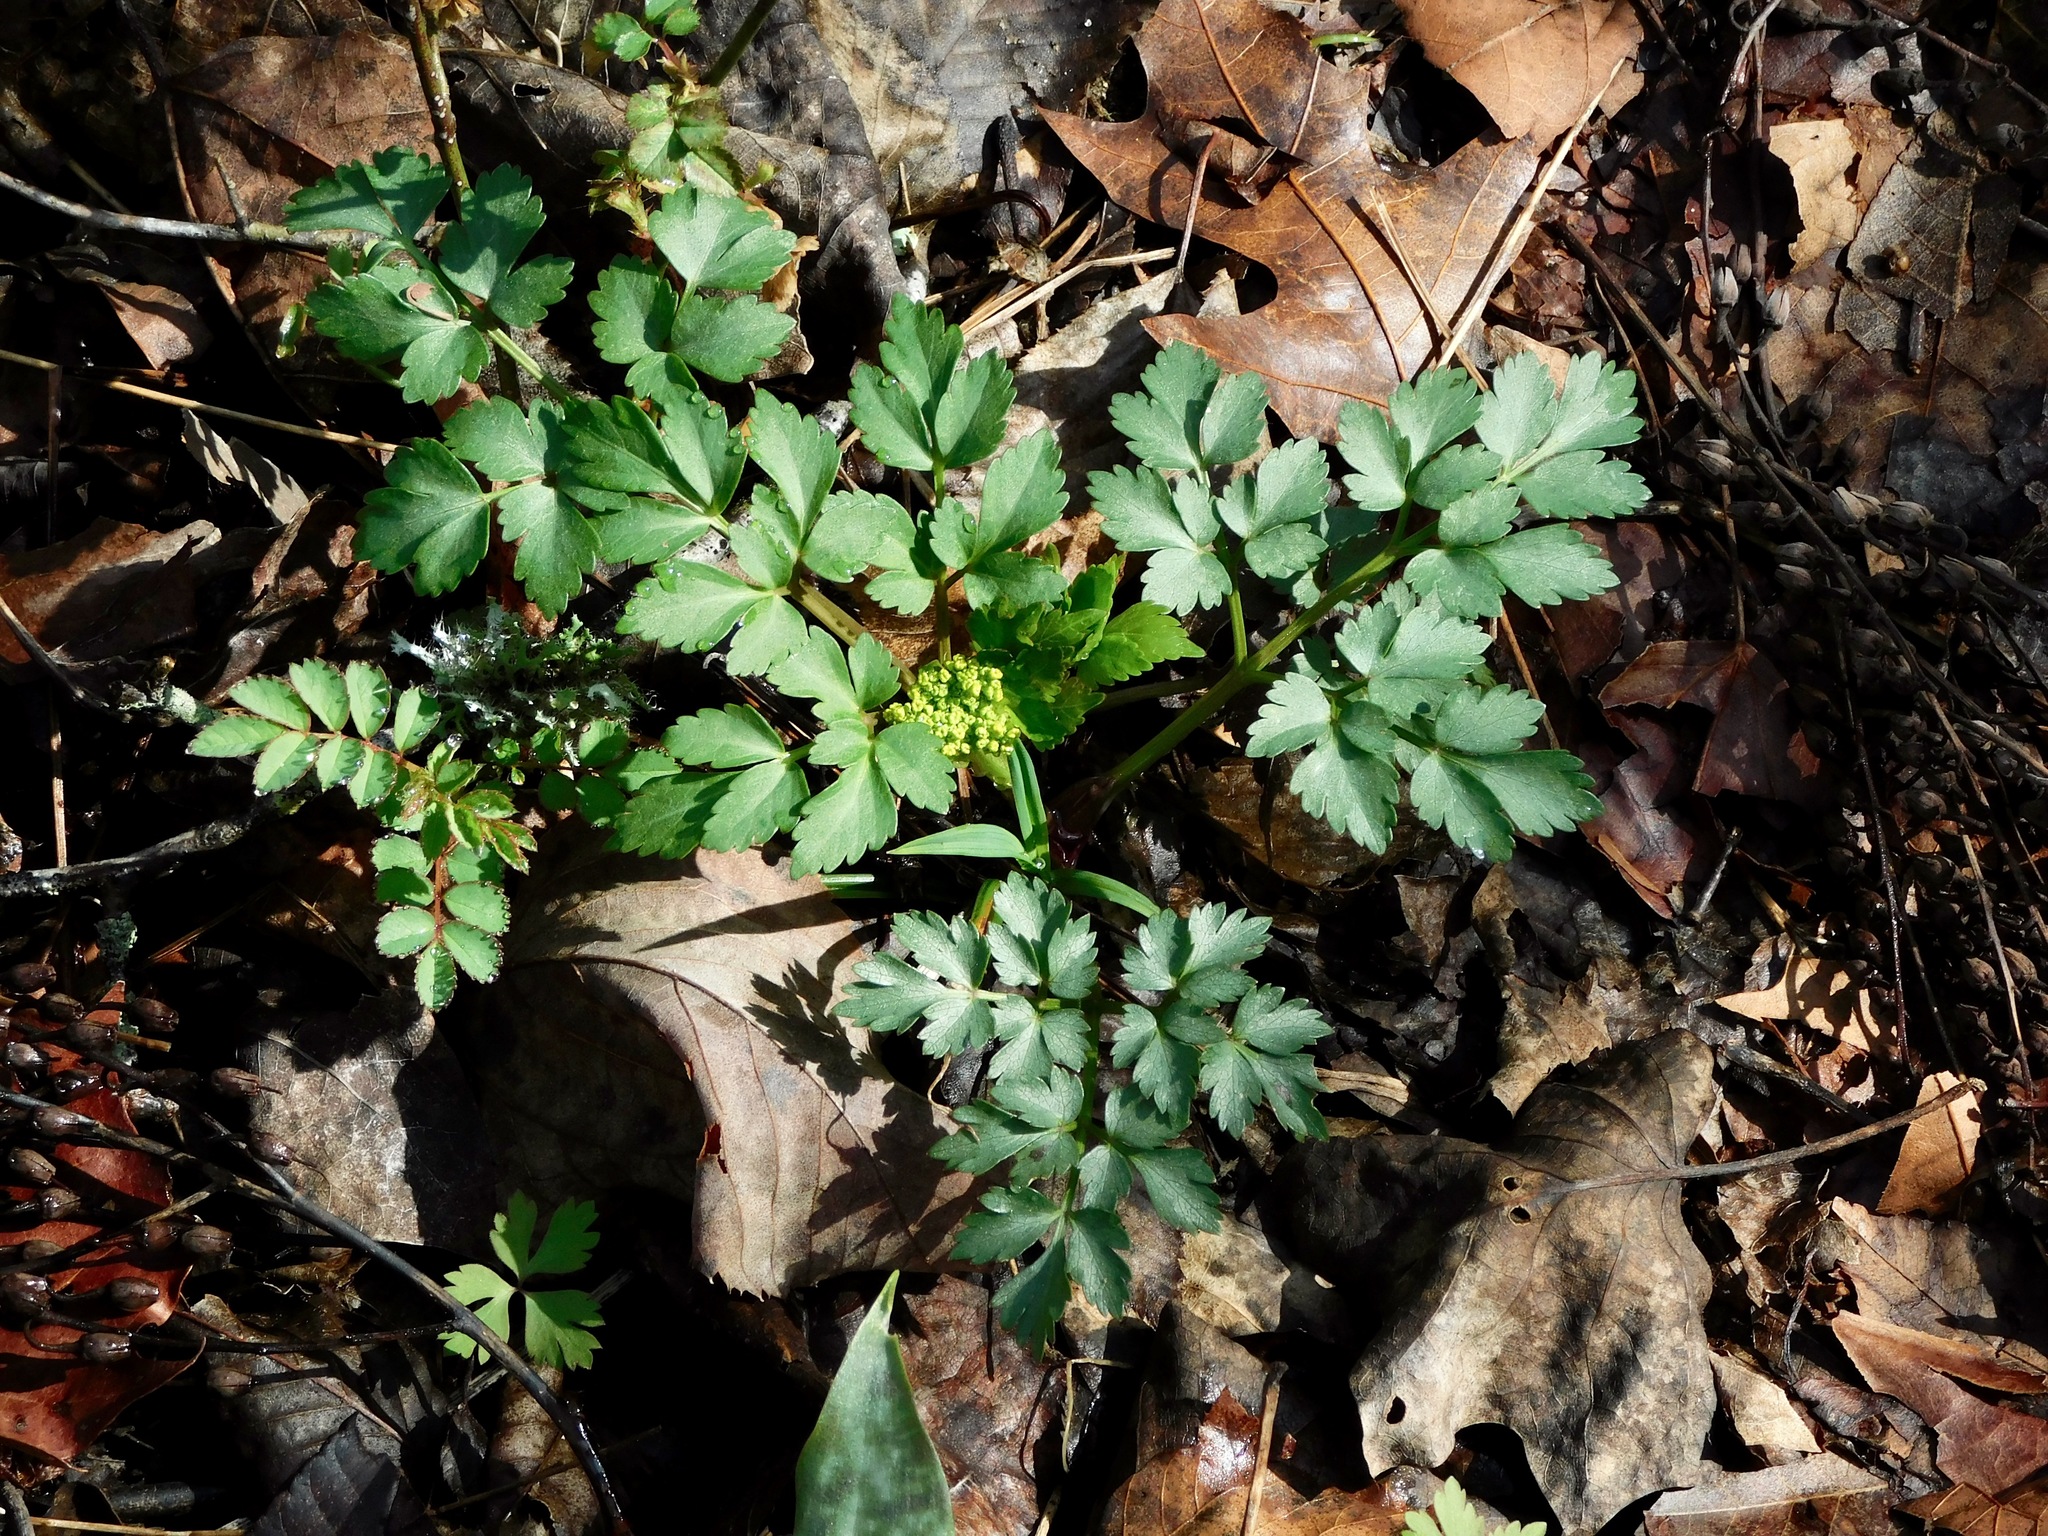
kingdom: Plantae
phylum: Tracheophyta
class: Magnoliopsida
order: Apiales
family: Apiaceae
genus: Zizia
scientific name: Zizia aurea
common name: Golden alexanders
